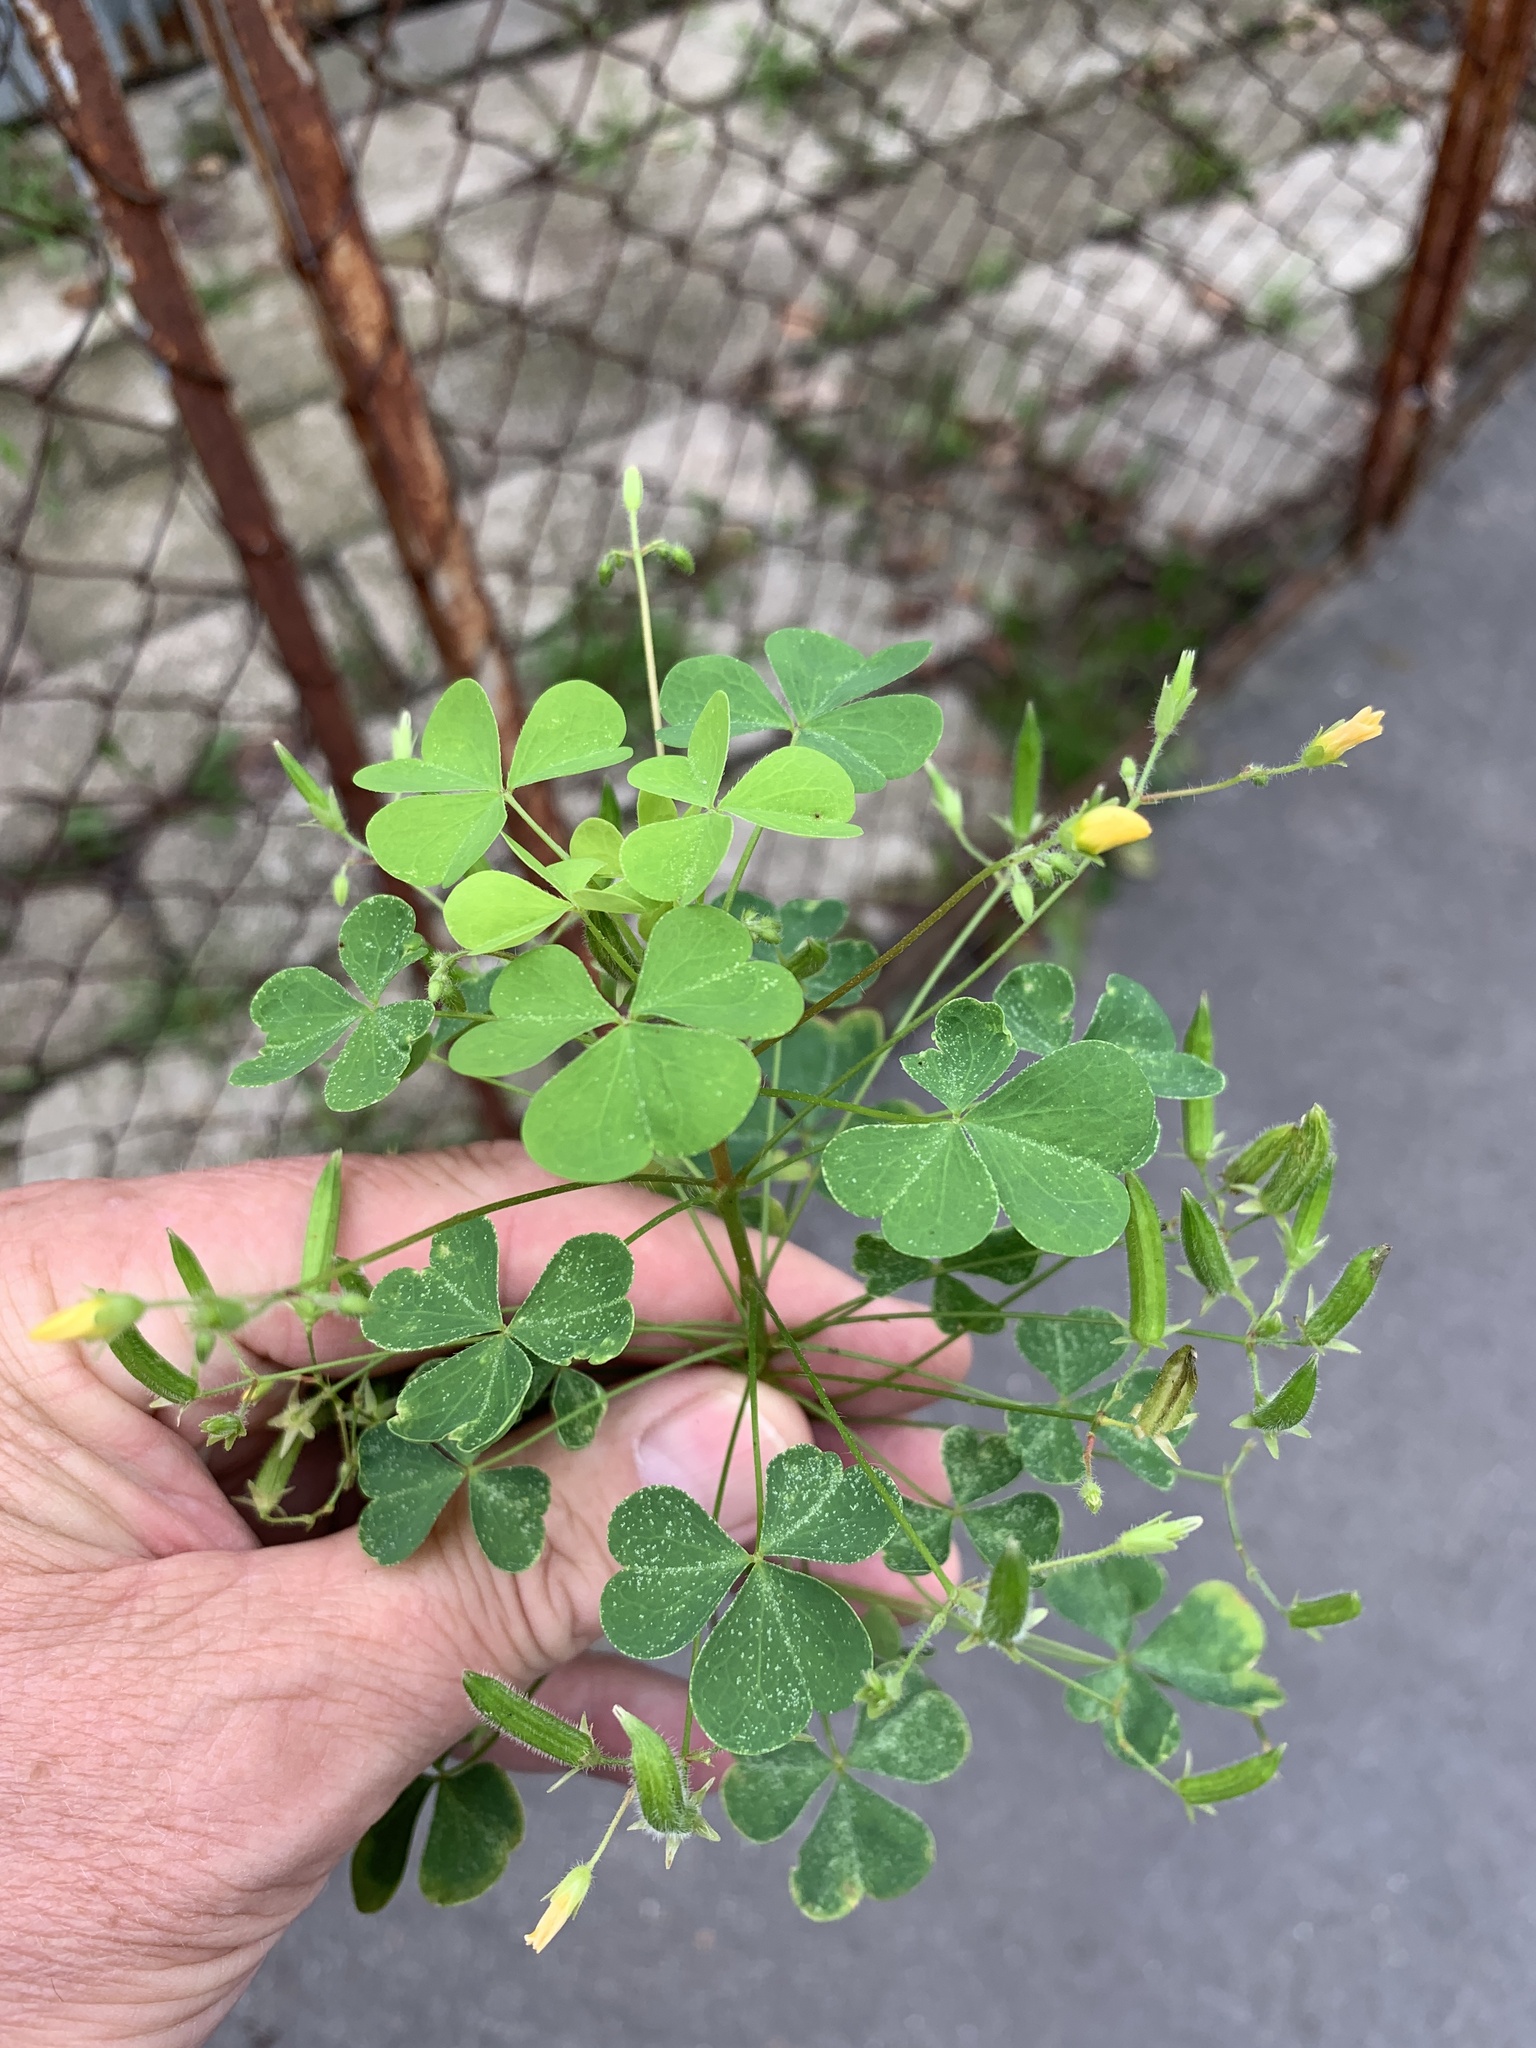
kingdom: Plantae
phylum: Tracheophyta
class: Magnoliopsida
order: Oxalidales
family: Oxalidaceae
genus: Oxalis
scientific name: Oxalis stricta
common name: Upright yellow-sorrel
